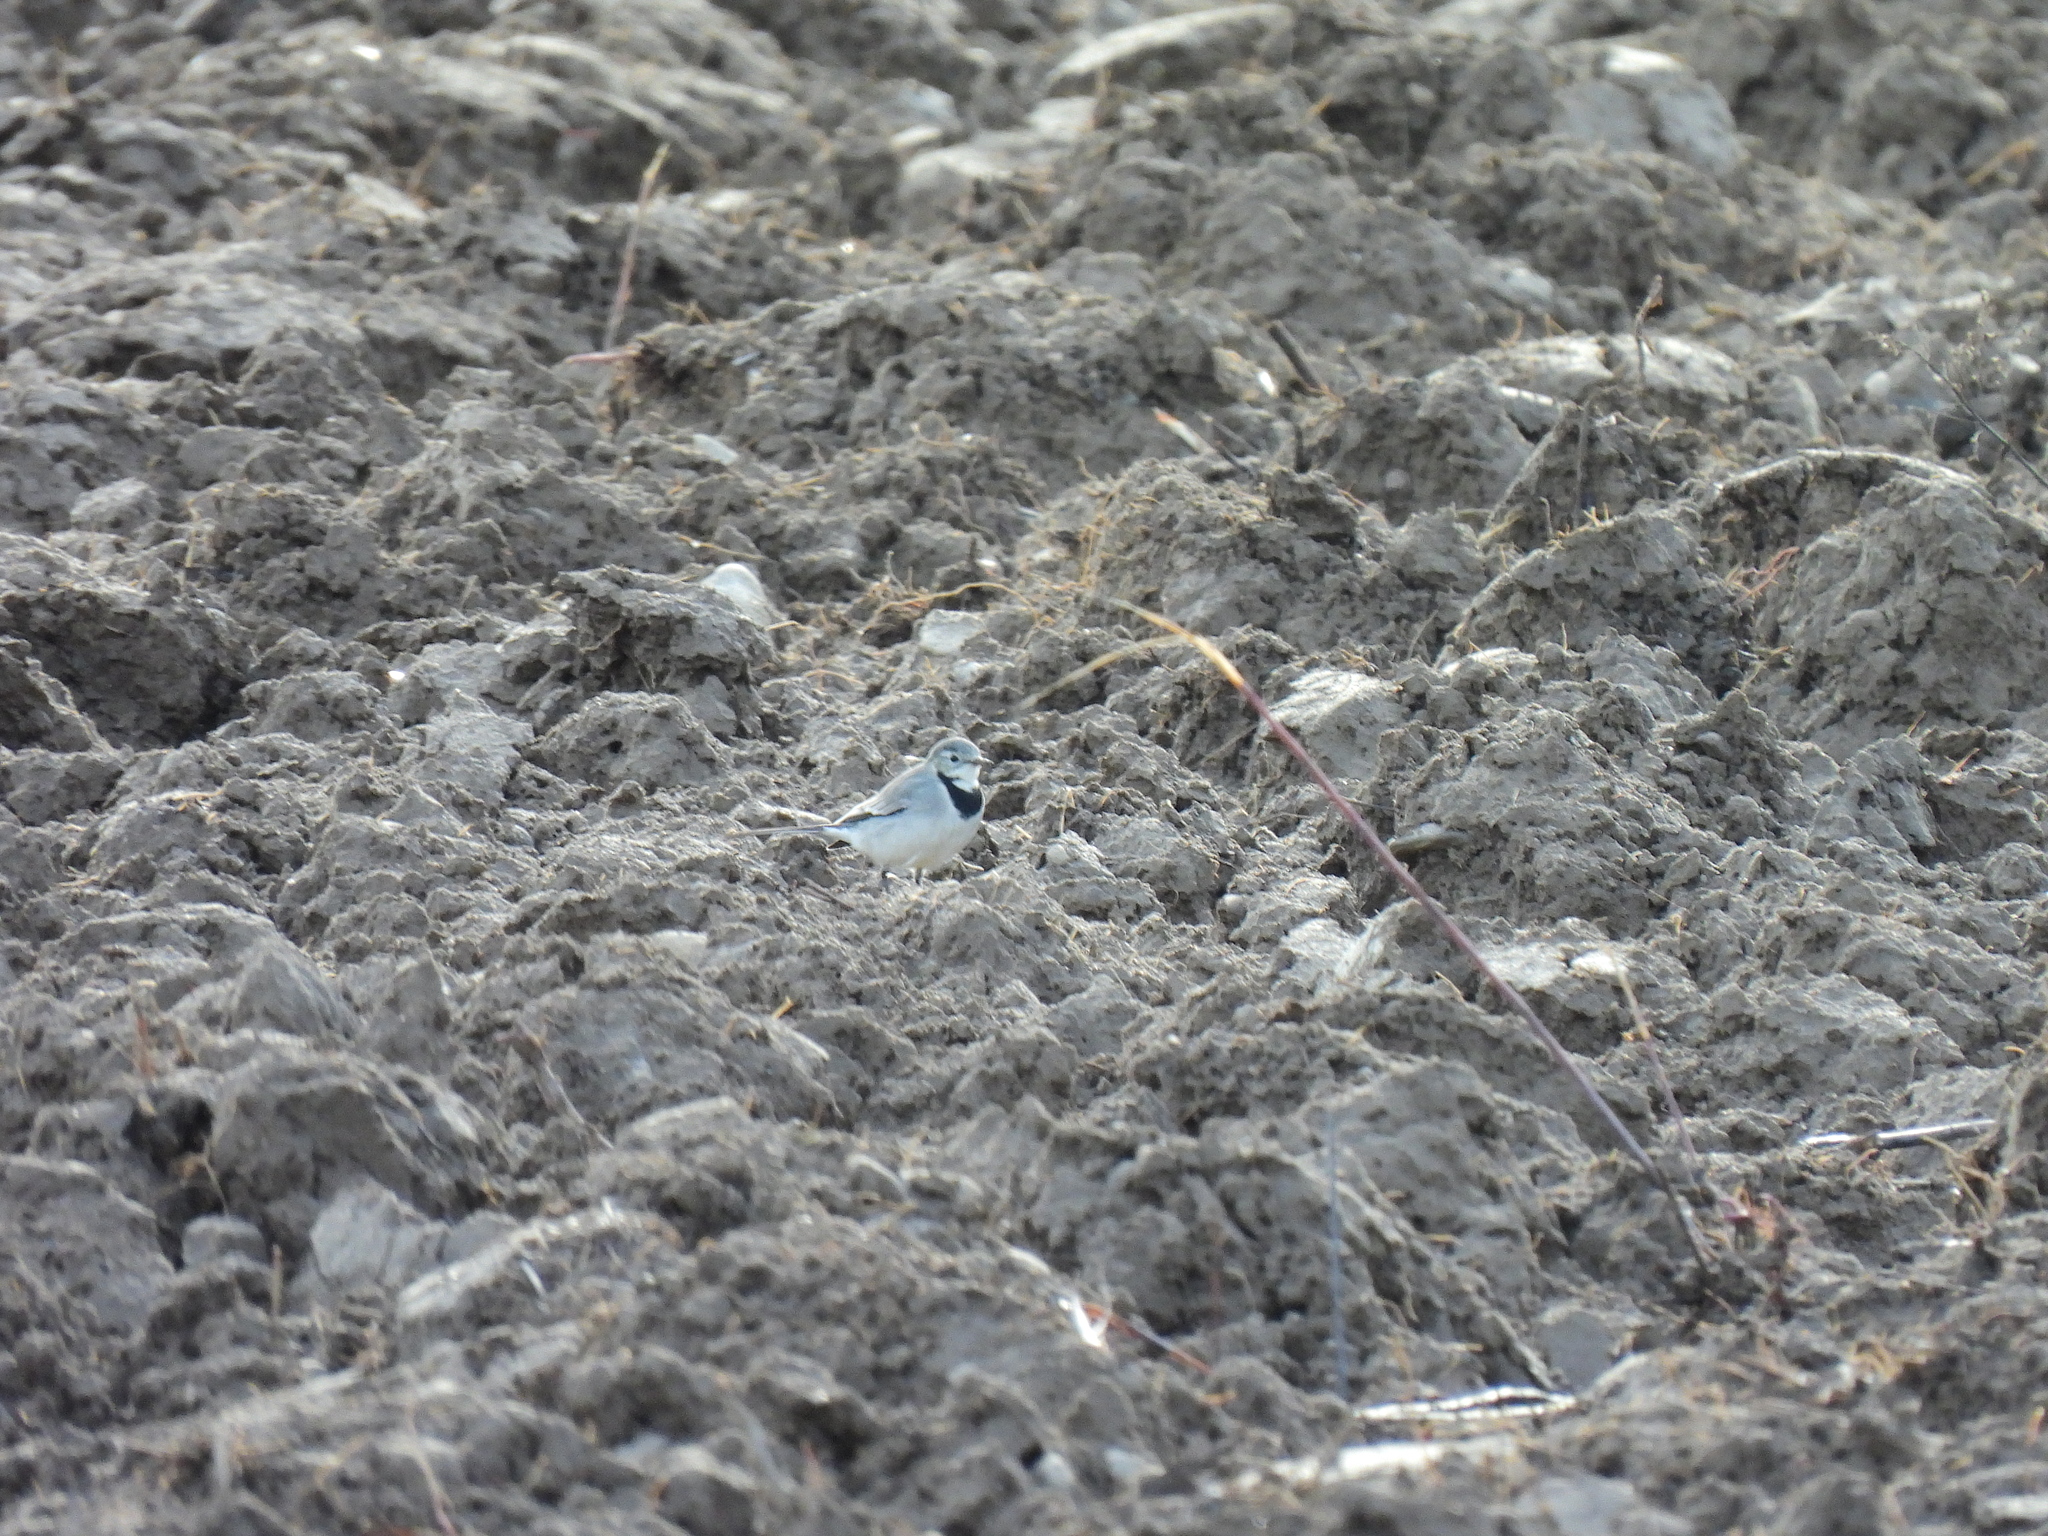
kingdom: Animalia
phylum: Chordata
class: Aves
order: Passeriformes
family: Motacillidae
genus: Motacilla
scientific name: Motacilla alba
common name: White wagtail
